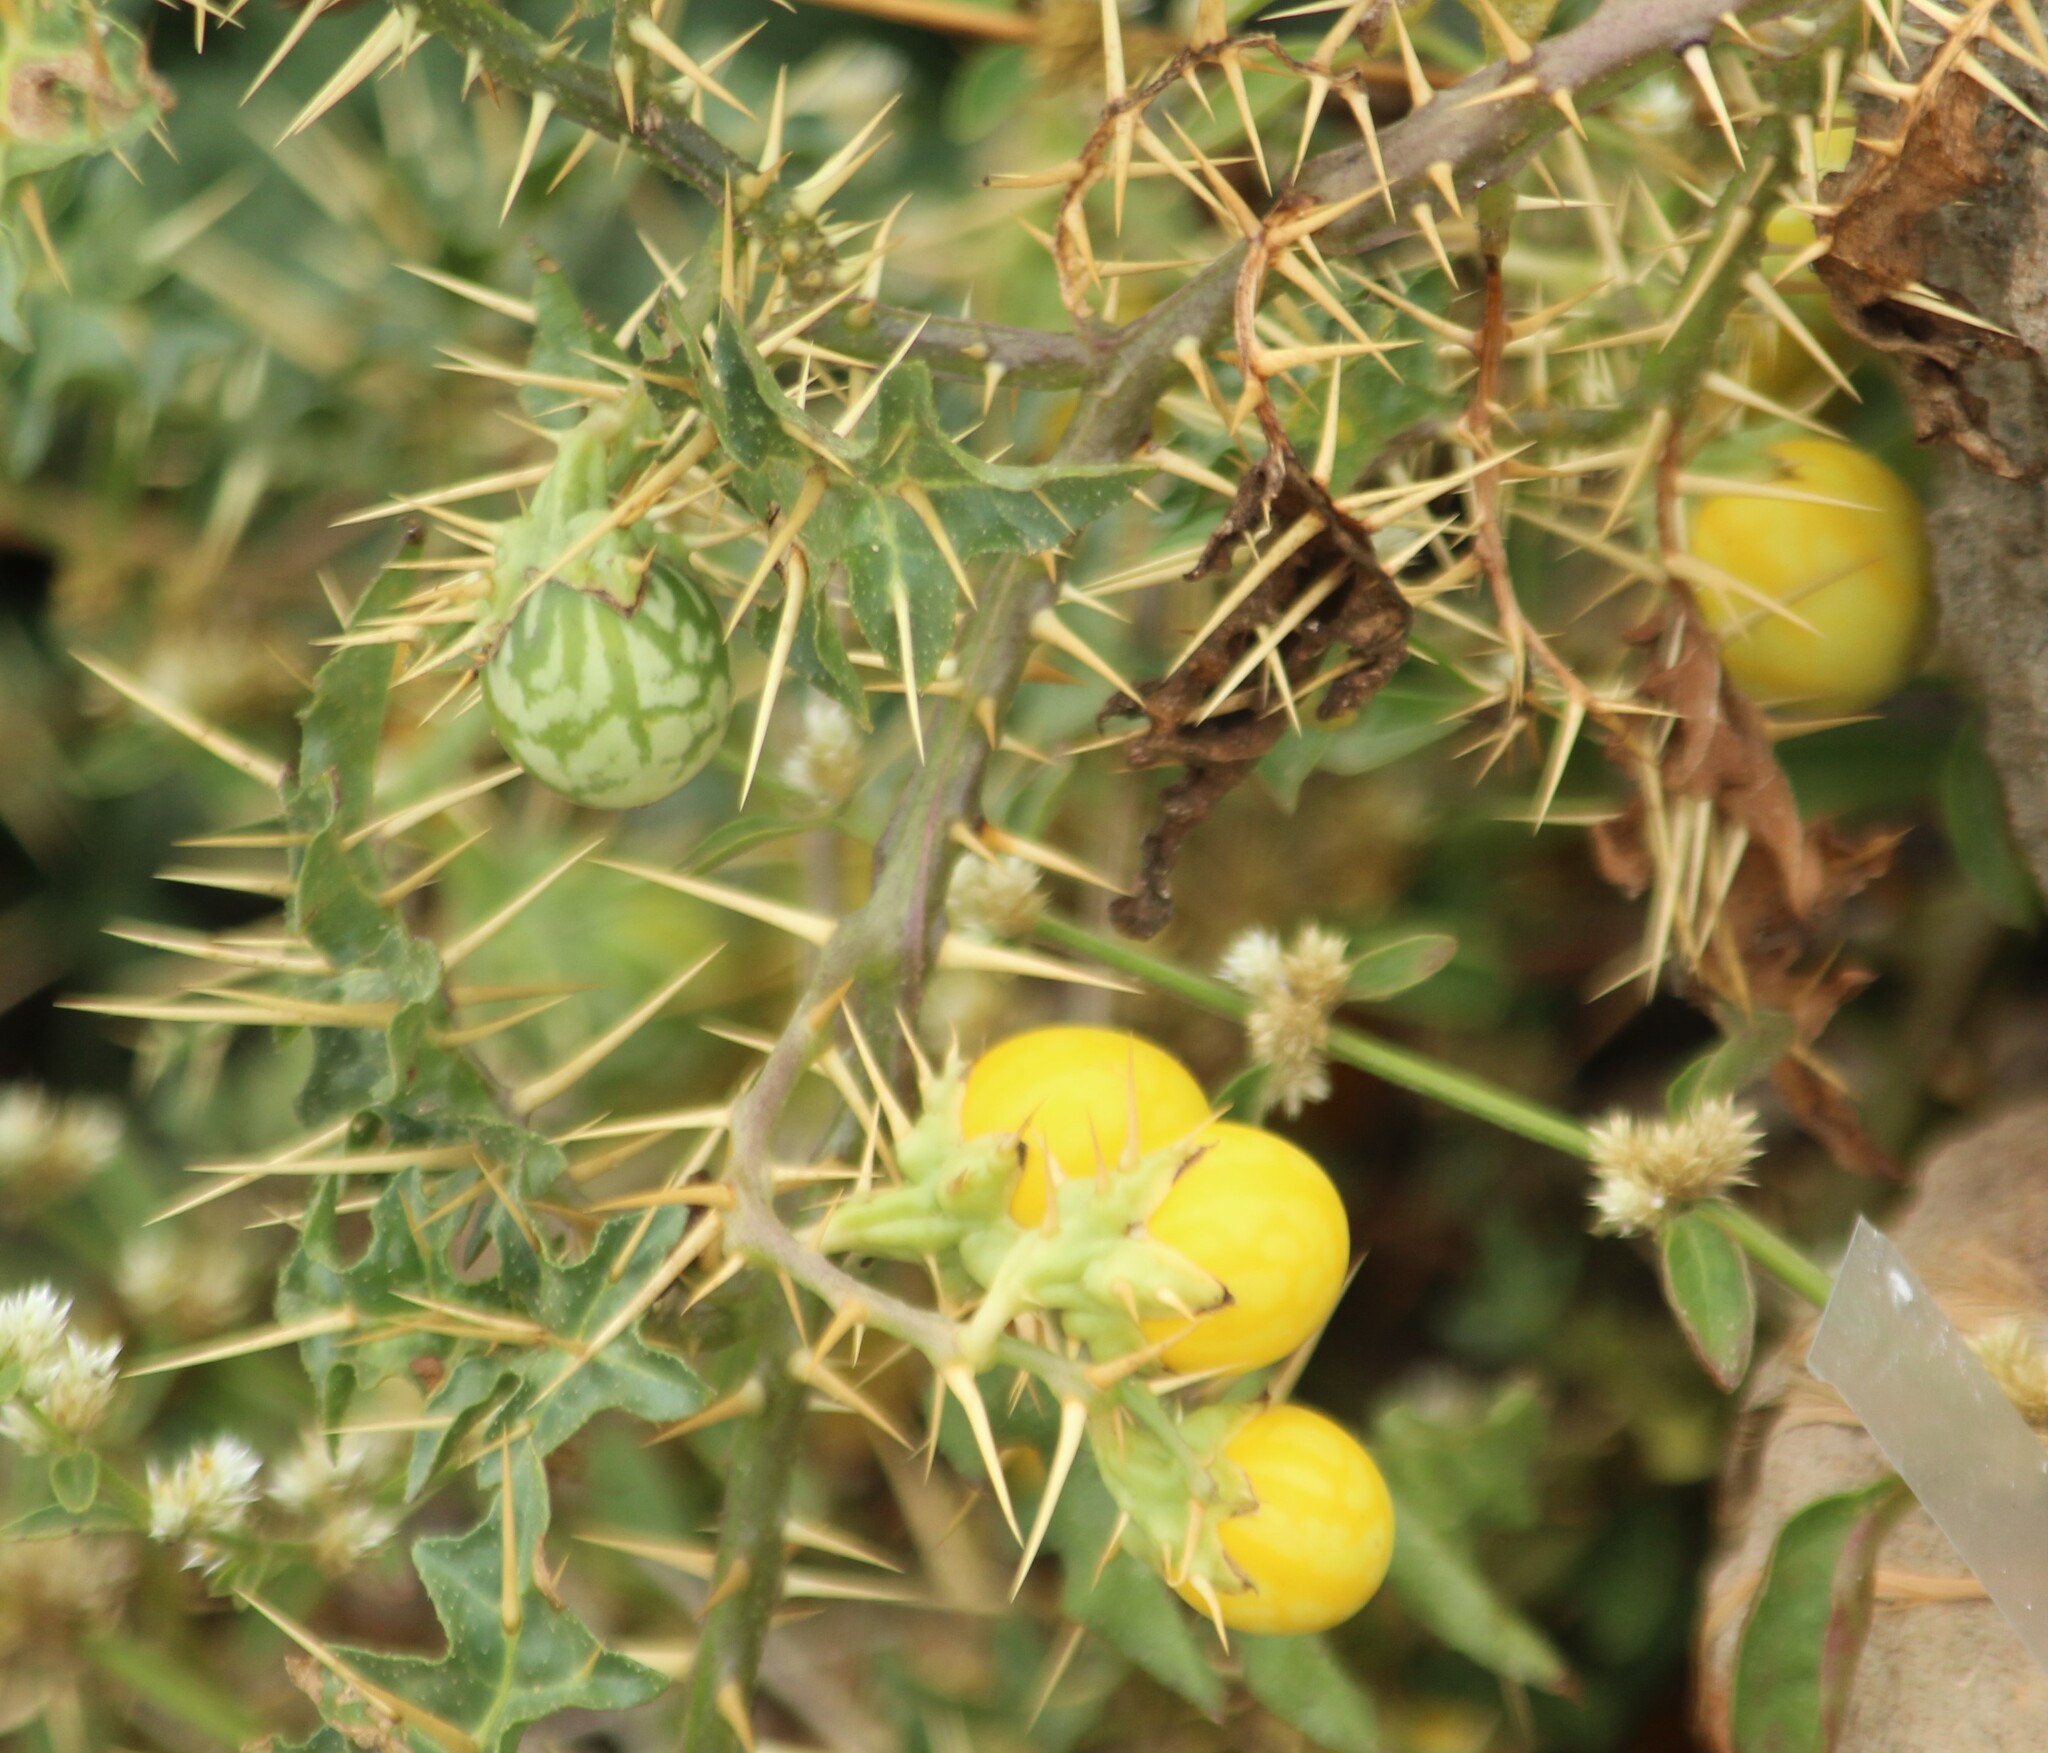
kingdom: Plantae
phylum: Tracheophyta
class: Magnoliopsida
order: Solanales
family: Solanaceae
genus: Solanum
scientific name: Solanum virginianum
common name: Surattense nightshade
